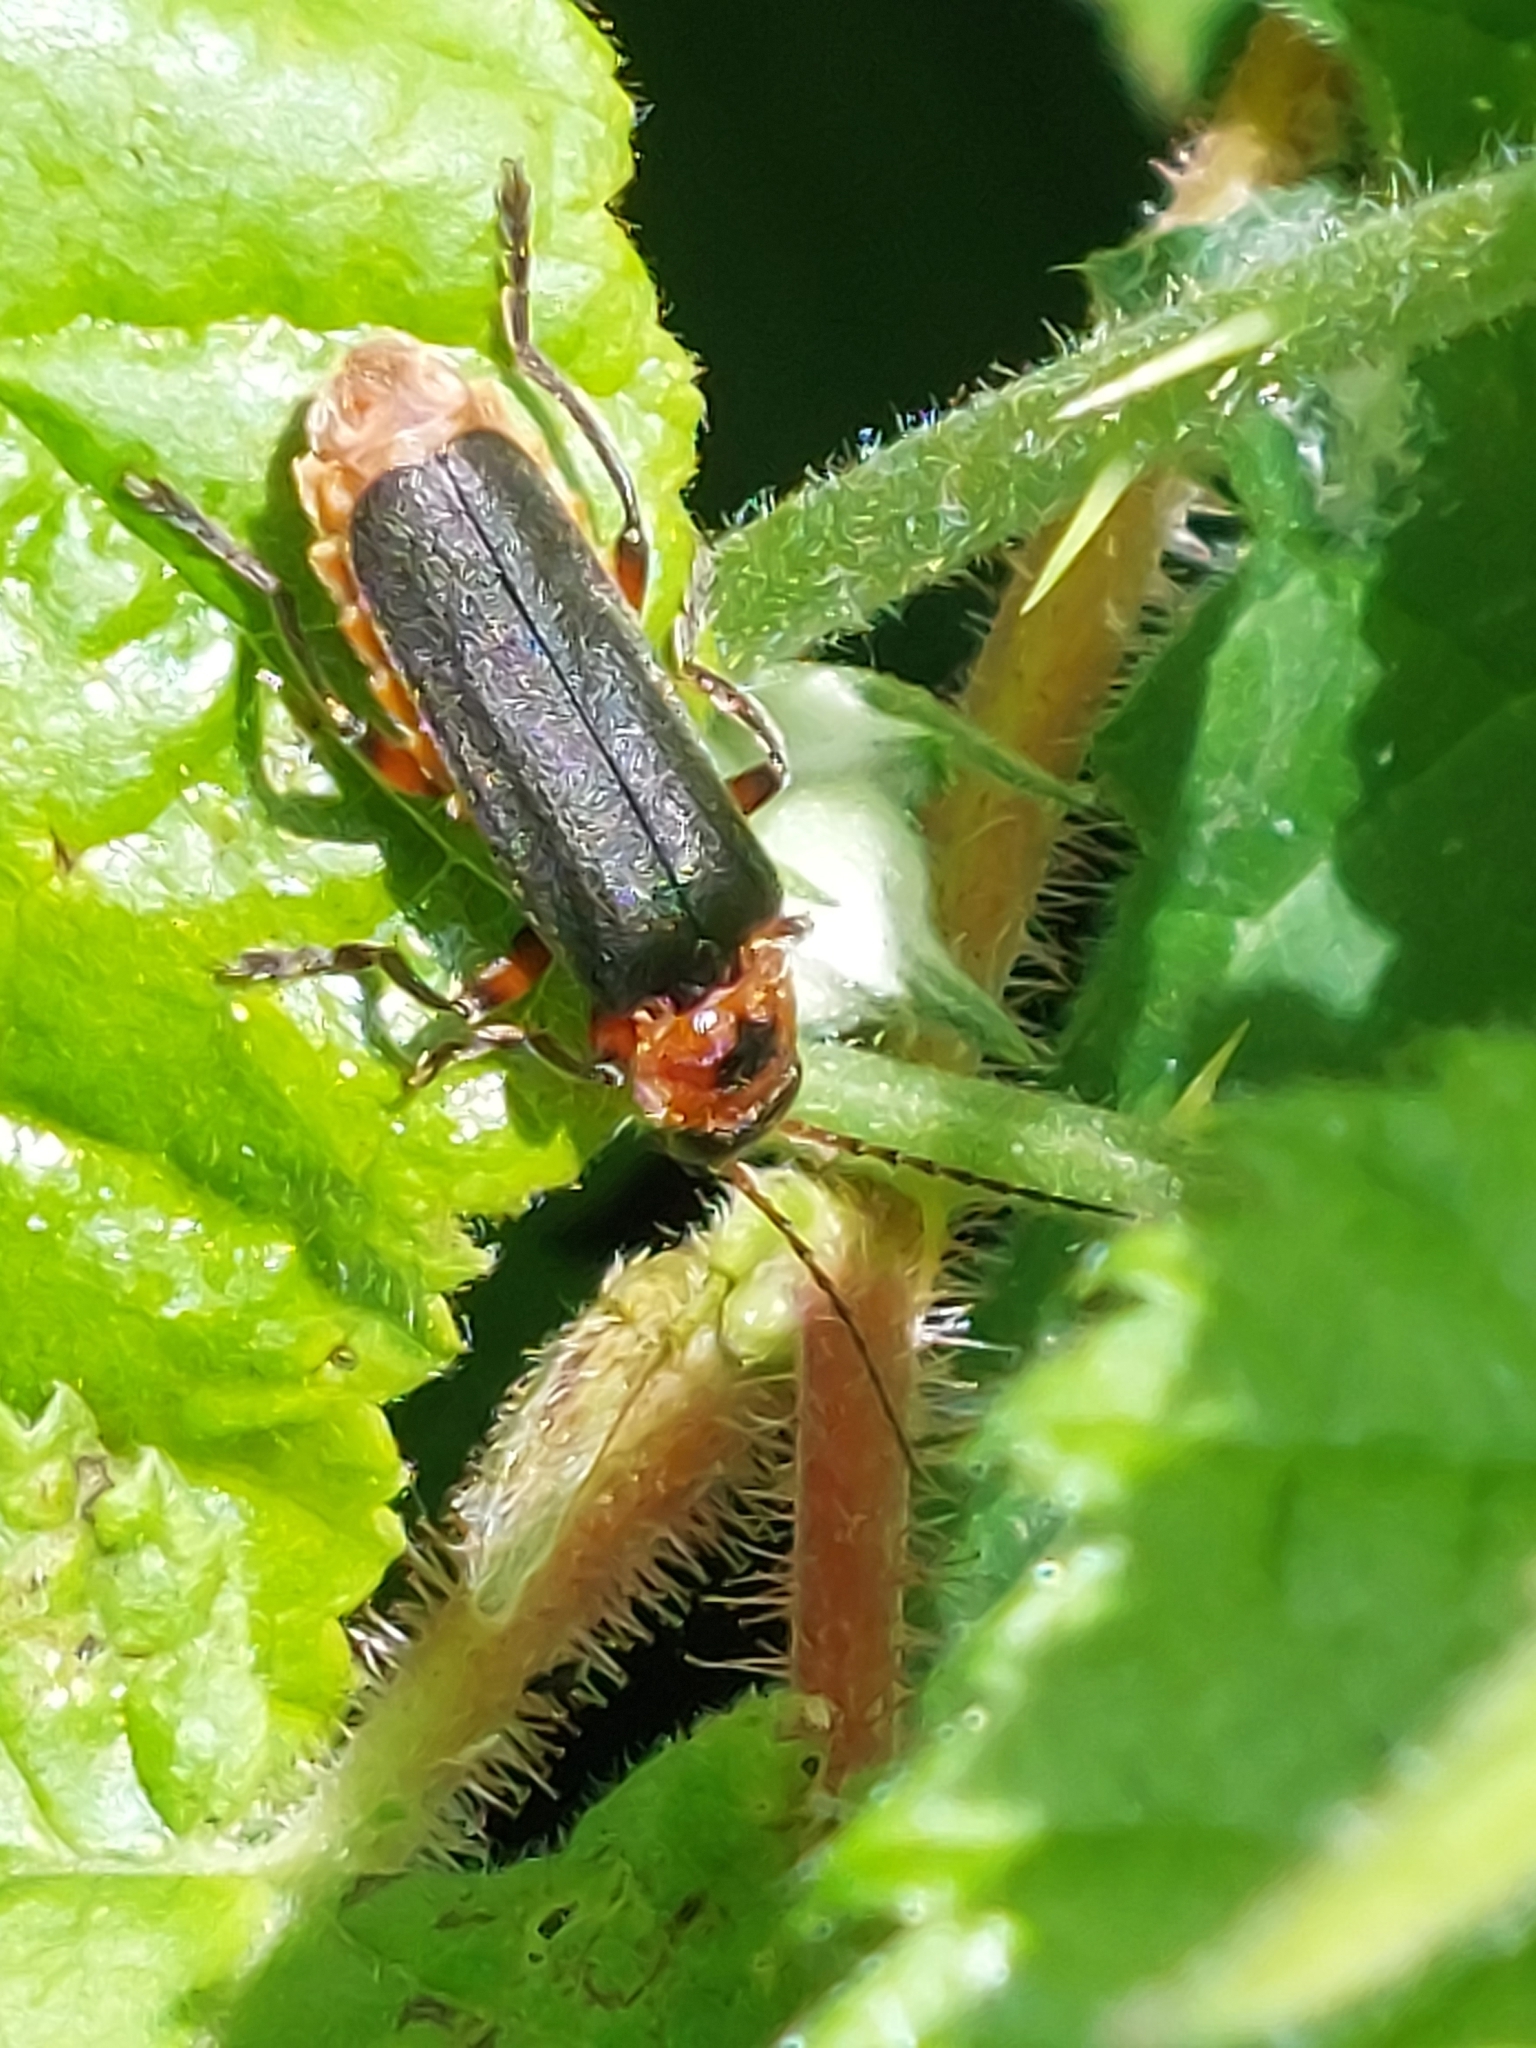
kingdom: Animalia
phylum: Arthropoda
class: Insecta
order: Coleoptera
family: Cantharidae
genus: Cantharis
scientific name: Cantharis rustica
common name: Soldier beetle
